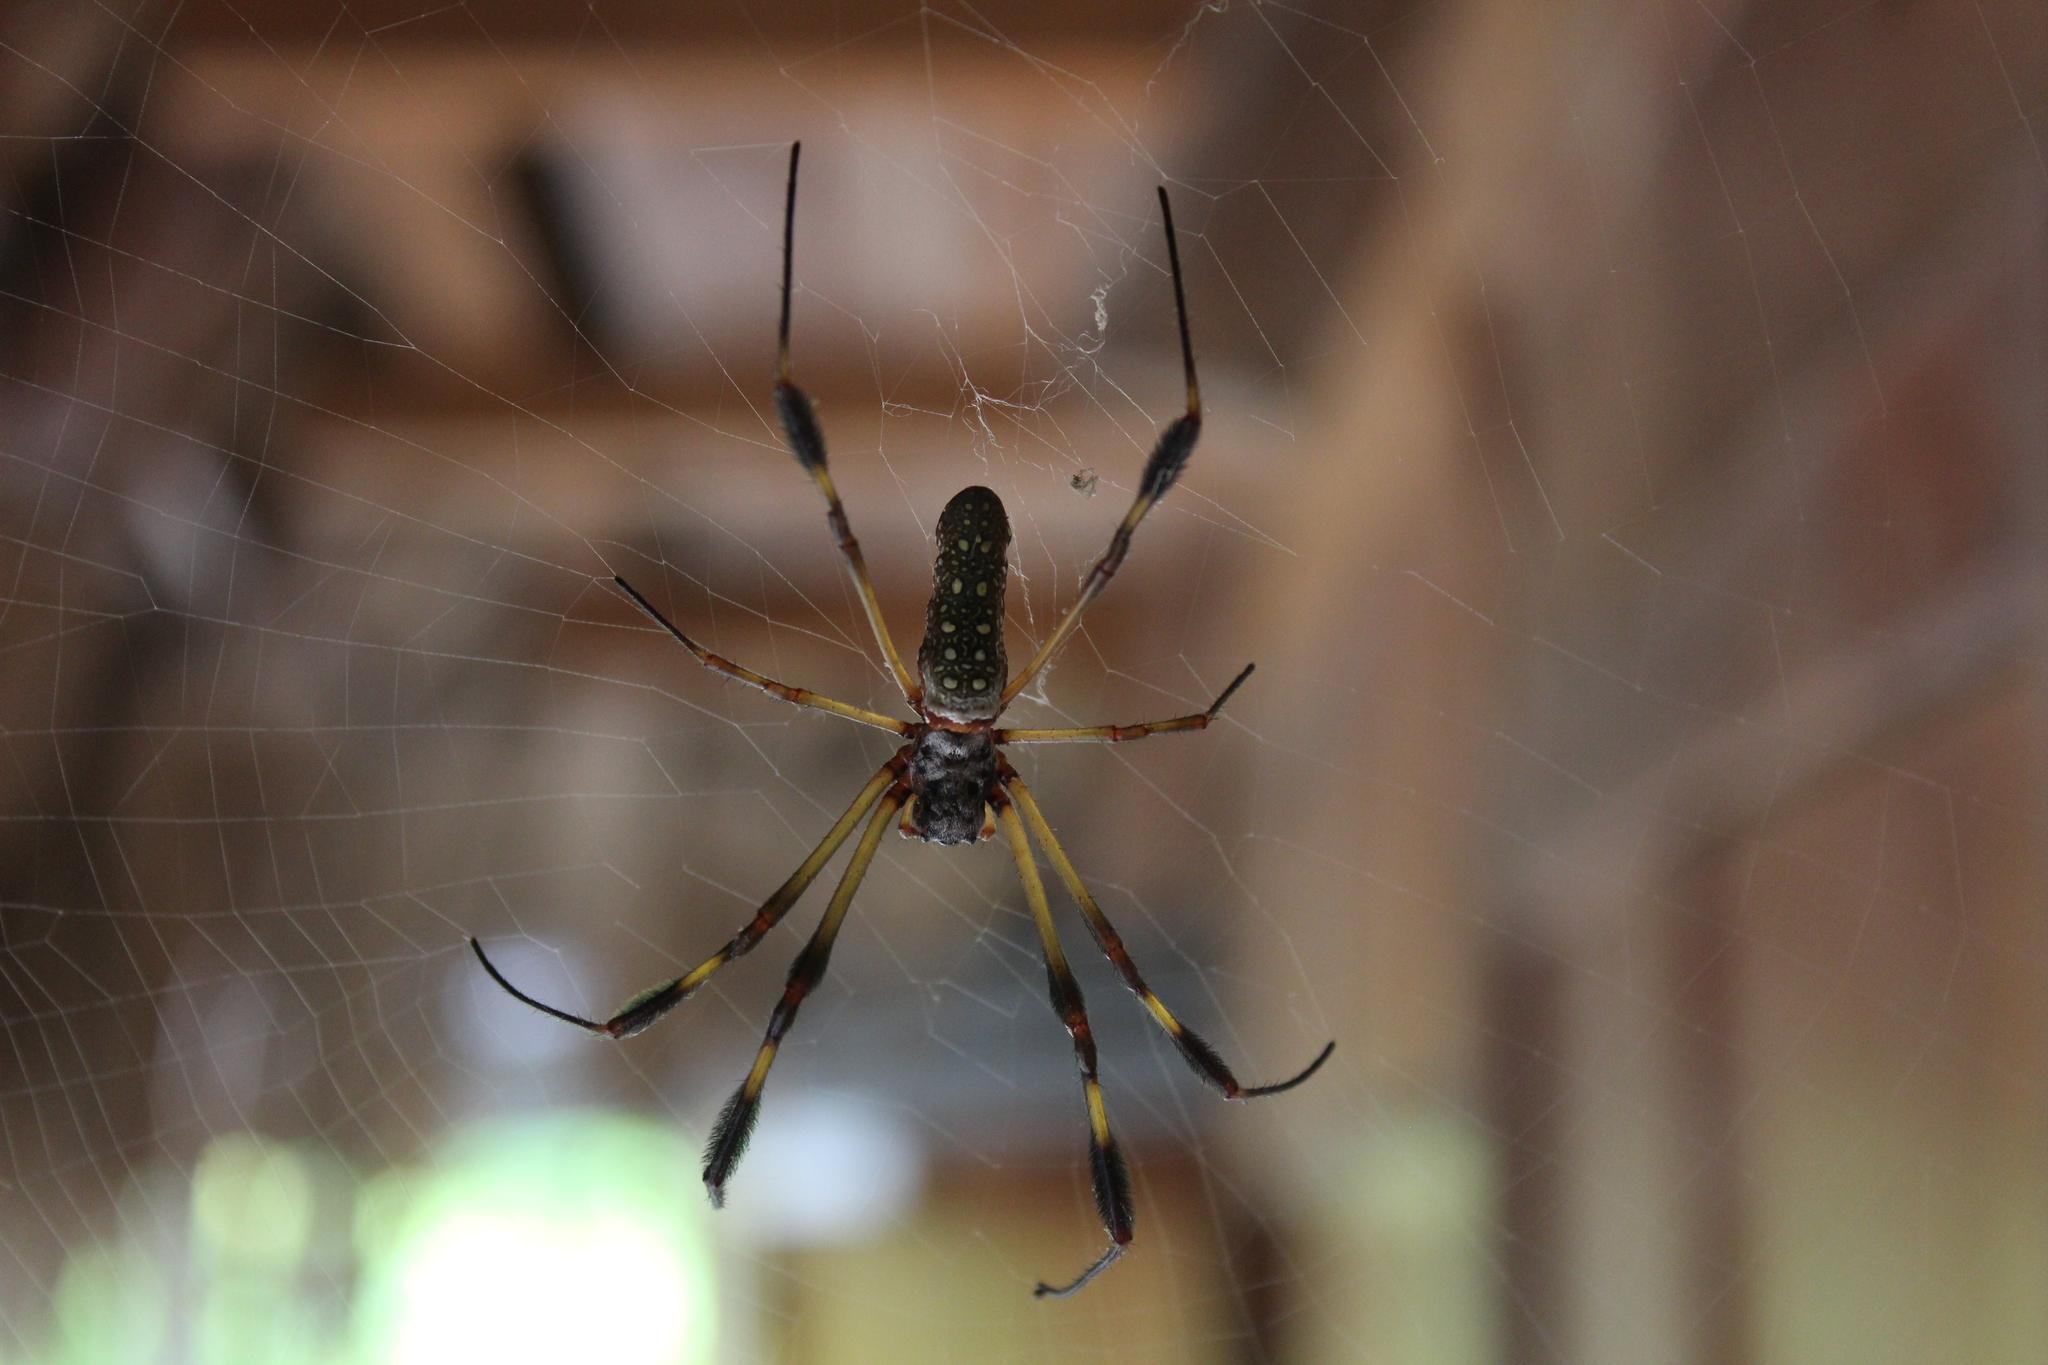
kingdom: Animalia
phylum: Arthropoda
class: Arachnida
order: Araneae
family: Araneidae
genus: Trichonephila
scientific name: Trichonephila clavipes
